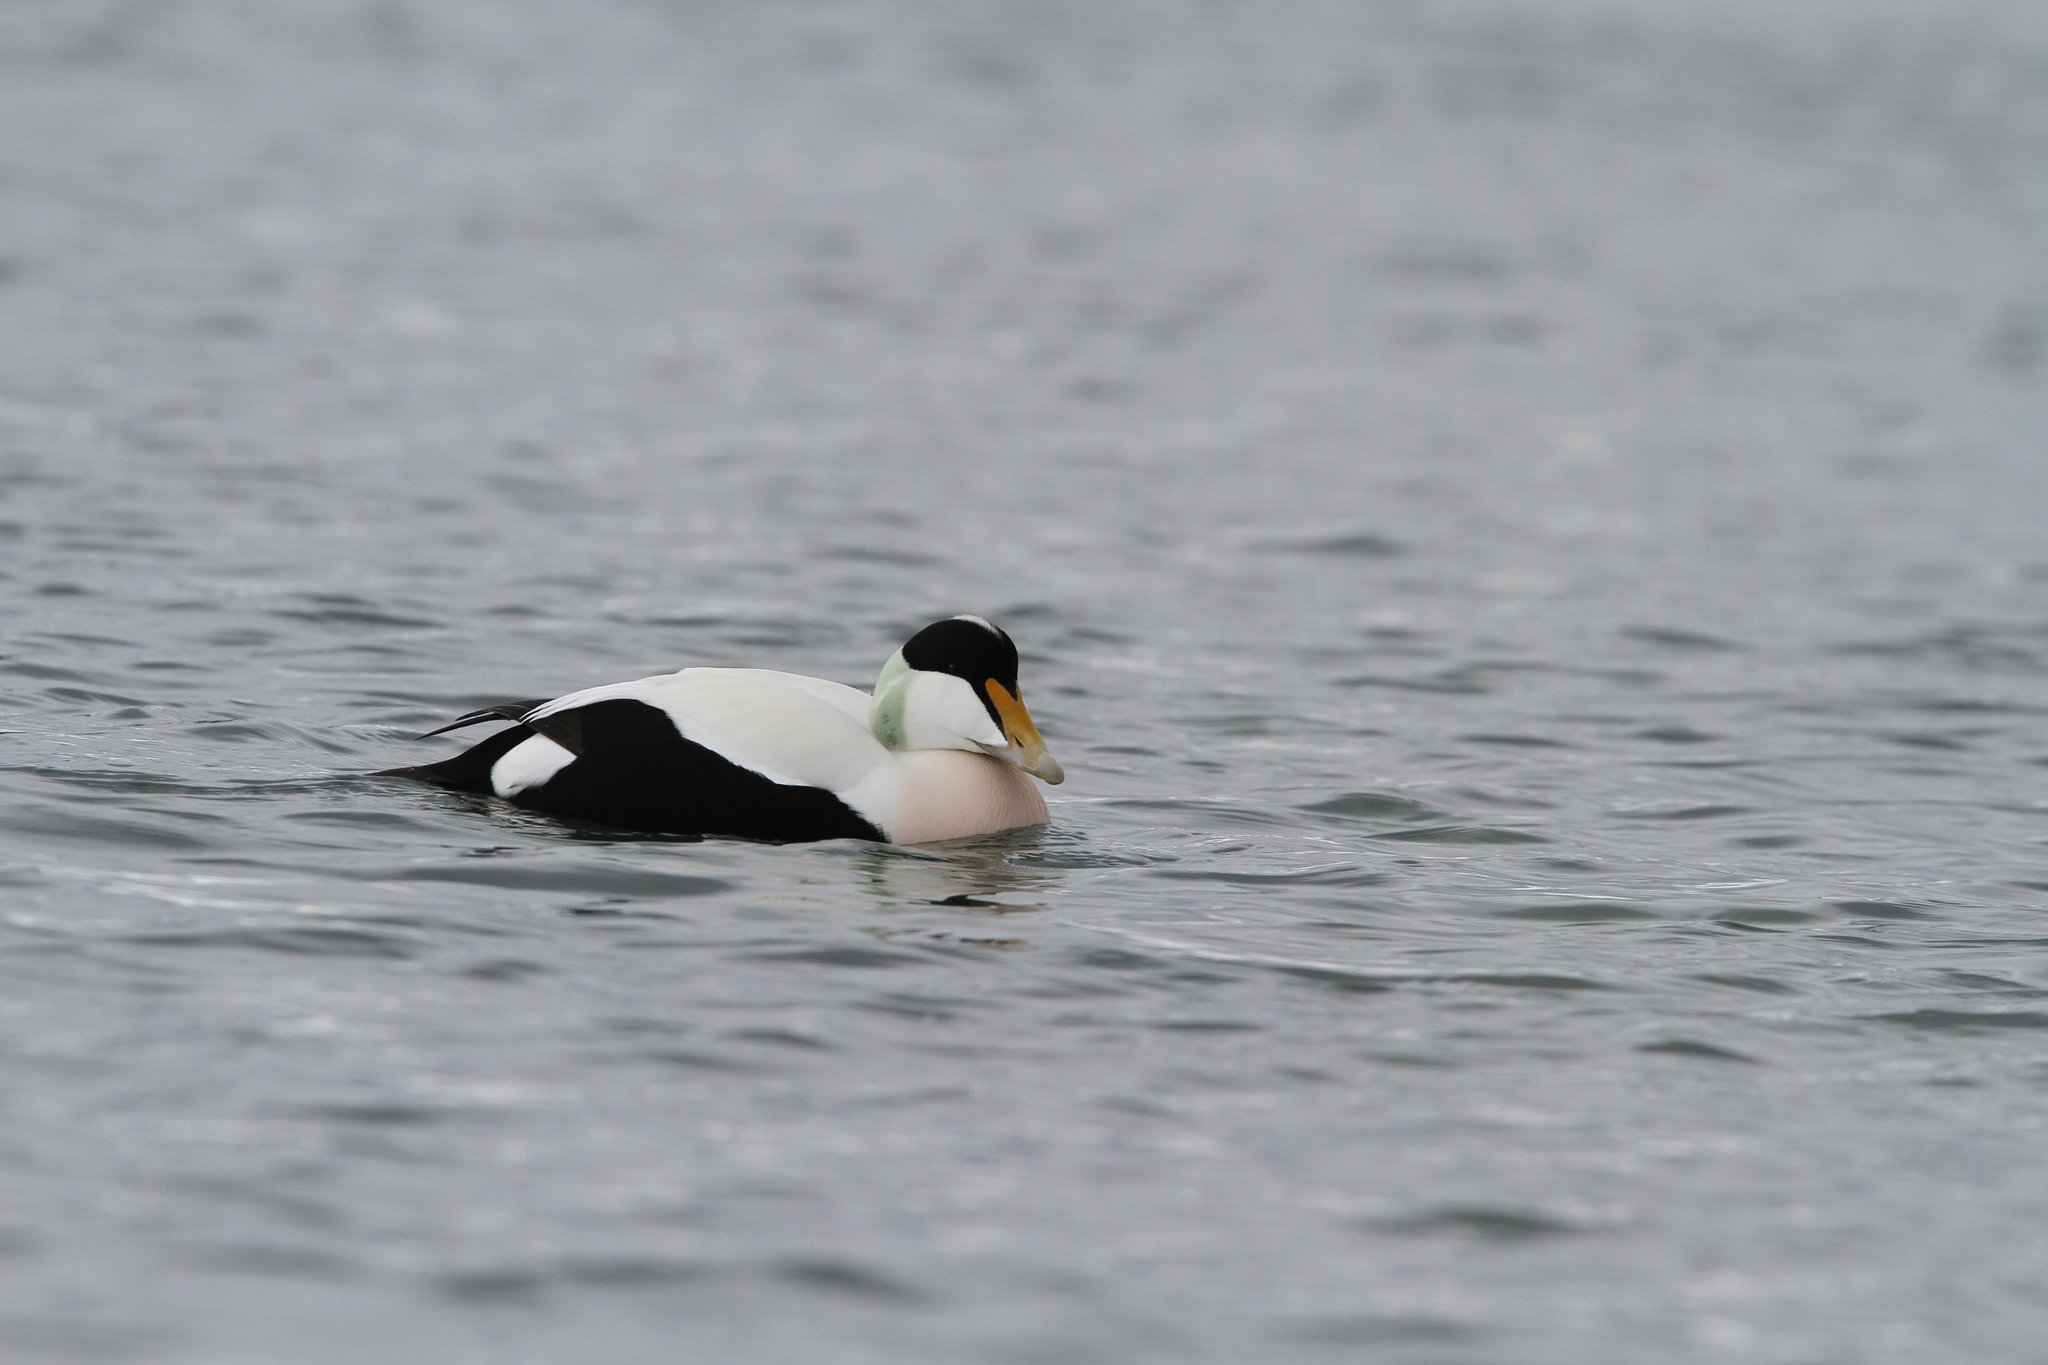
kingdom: Animalia
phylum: Chordata
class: Aves
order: Anseriformes
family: Anatidae
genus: Somateria
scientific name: Somateria mollissima
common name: Common eider
